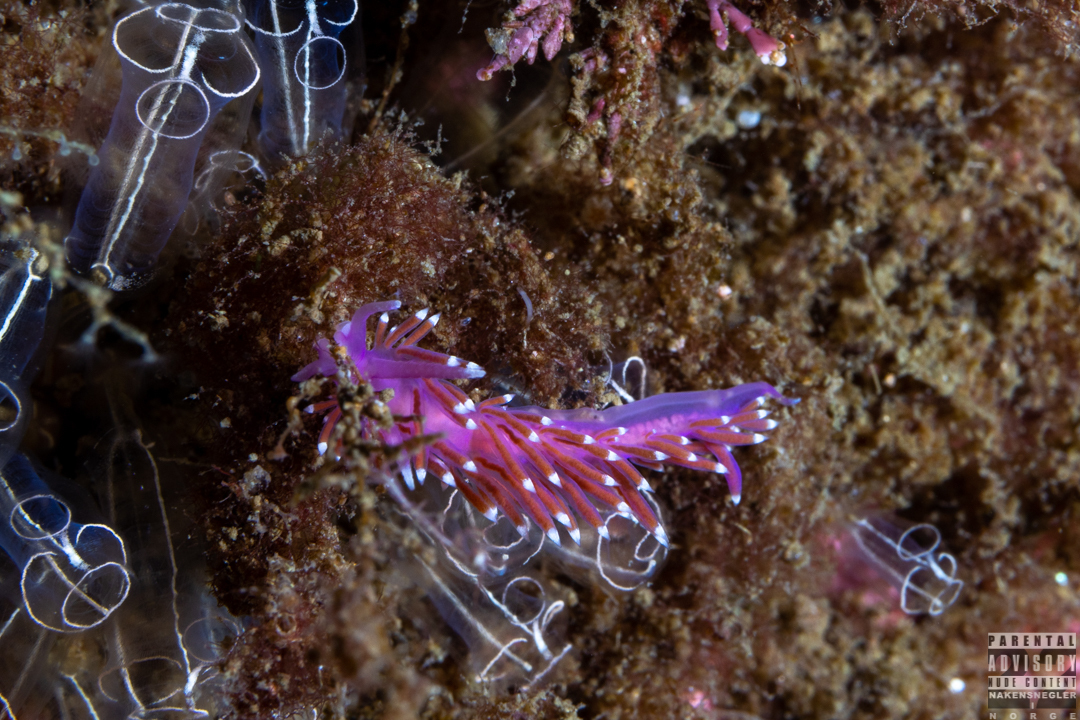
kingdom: Animalia
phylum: Mollusca
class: Gastropoda
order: Nudibranchia
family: Flabellinidae
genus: Edmundsella
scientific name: Edmundsella pedata
